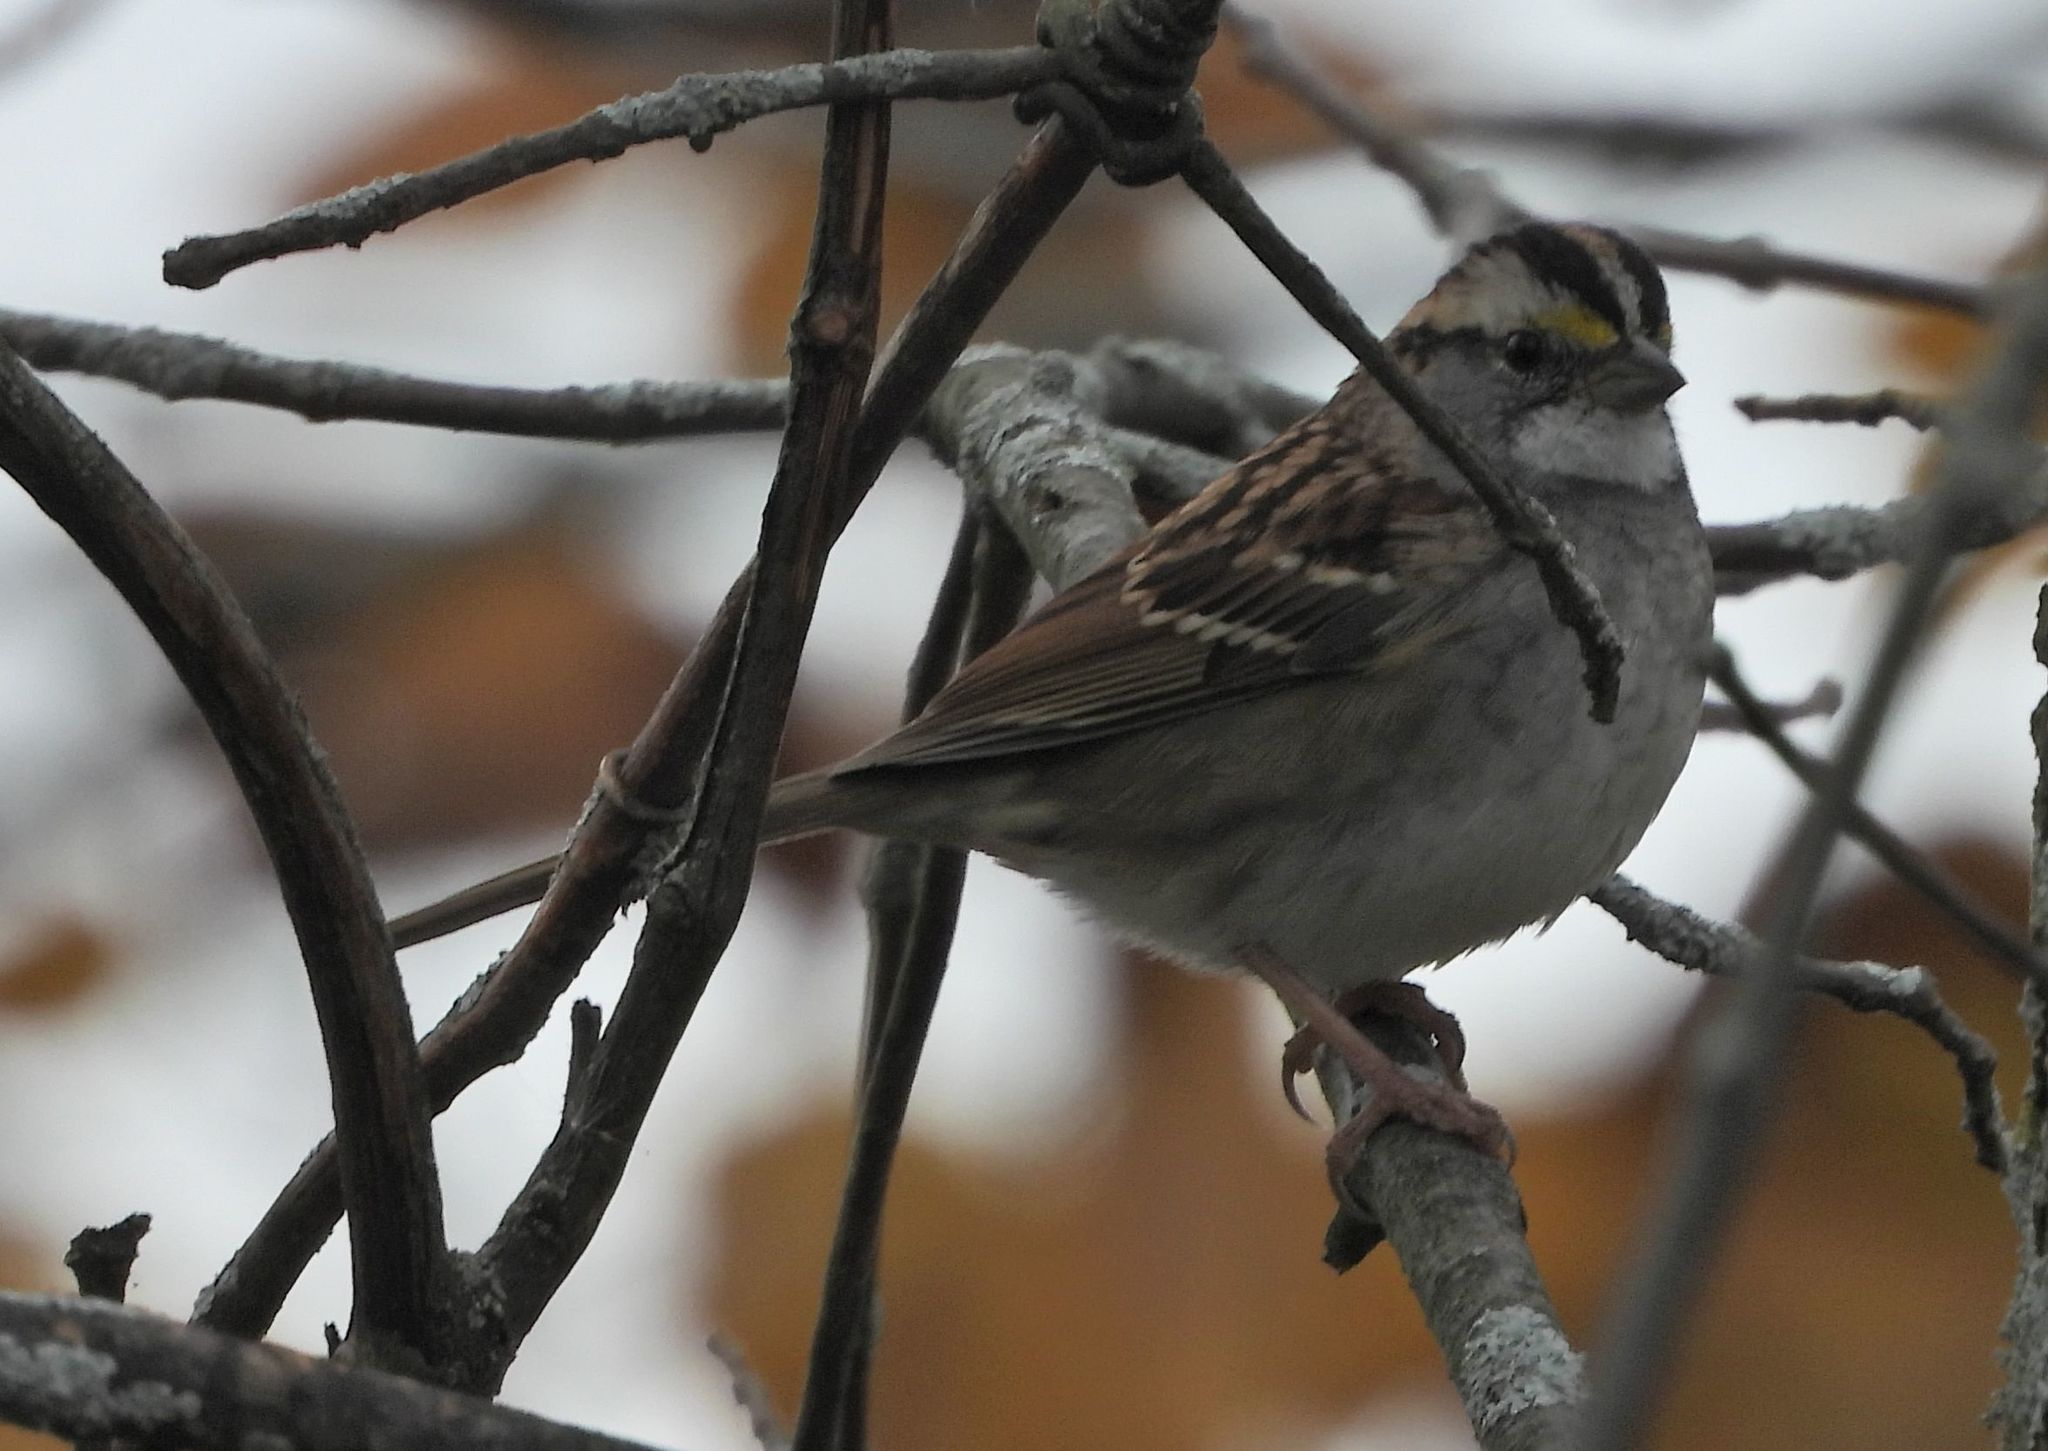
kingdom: Animalia
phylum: Chordata
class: Aves
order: Passeriformes
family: Passerellidae
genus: Zonotrichia
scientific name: Zonotrichia albicollis
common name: White-throated sparrow
